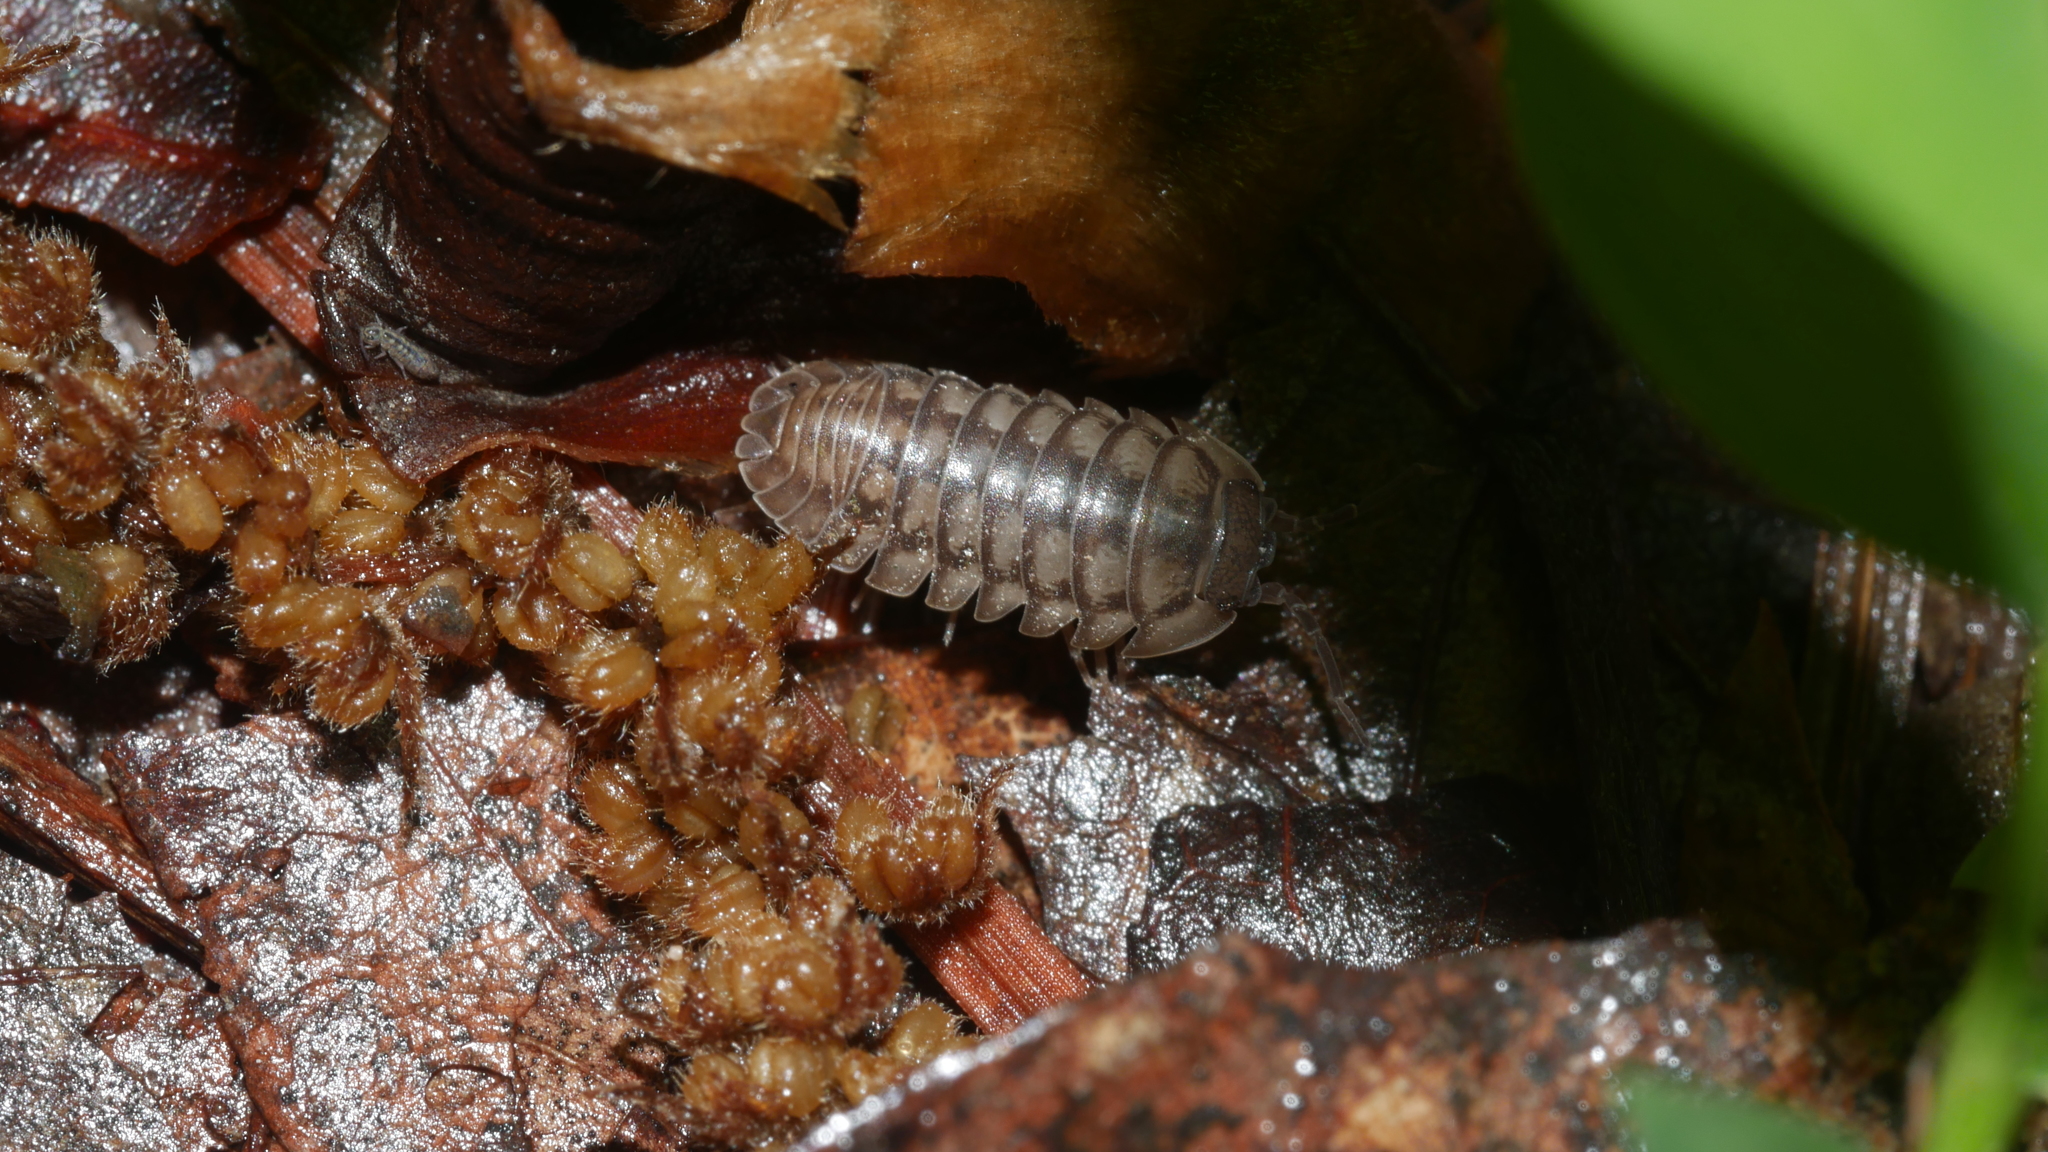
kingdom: Animalia
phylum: Arthropoda
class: Malacostraca
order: Isopoda
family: Armadillidiidae
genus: Armadillidium
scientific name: Armadillidium nasatum
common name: Isopod
